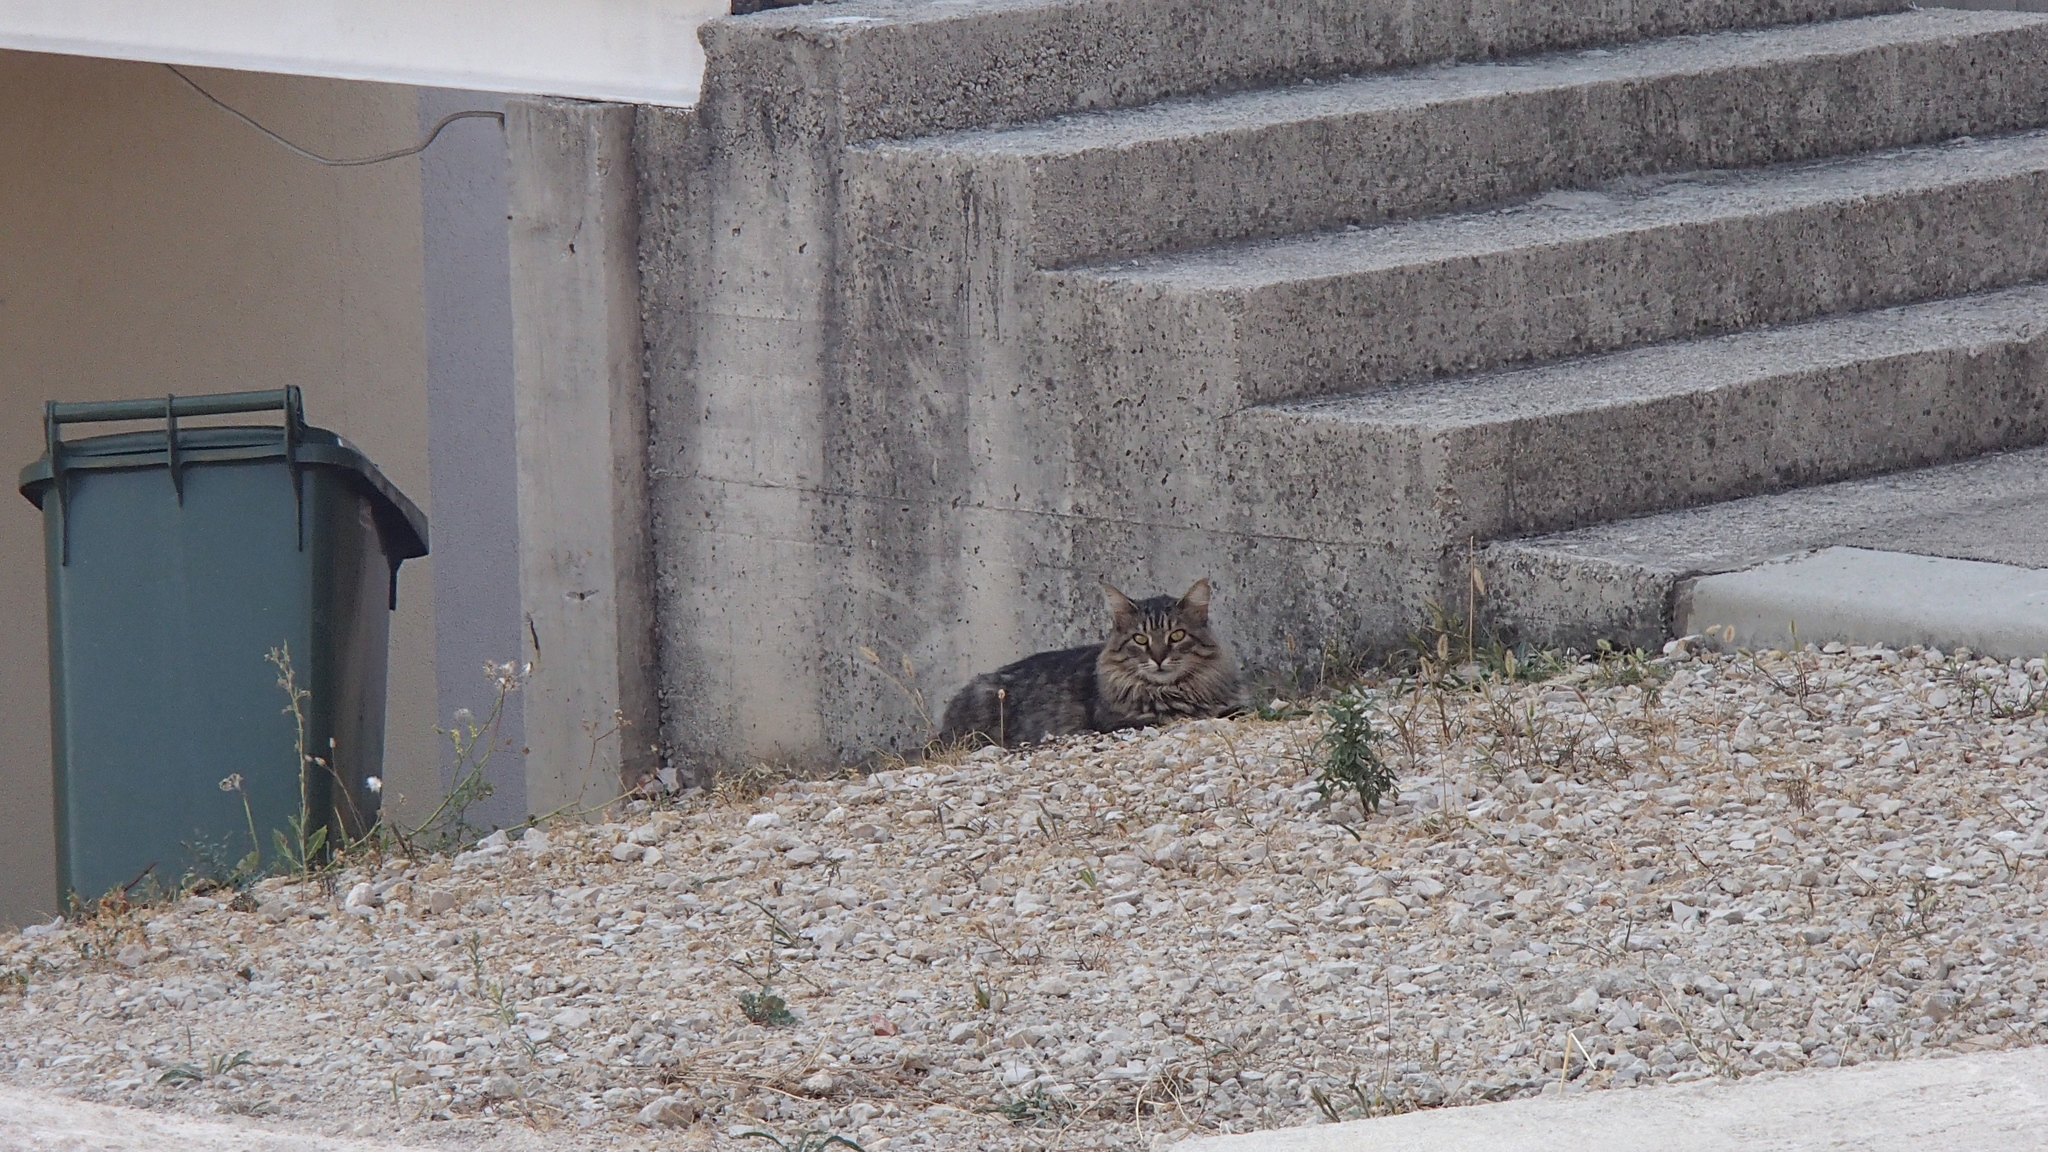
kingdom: Animalia
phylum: Chordata
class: Mammalia
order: Carnivora
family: Felidae
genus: Felis
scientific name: Felis catus
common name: Domestic cat
